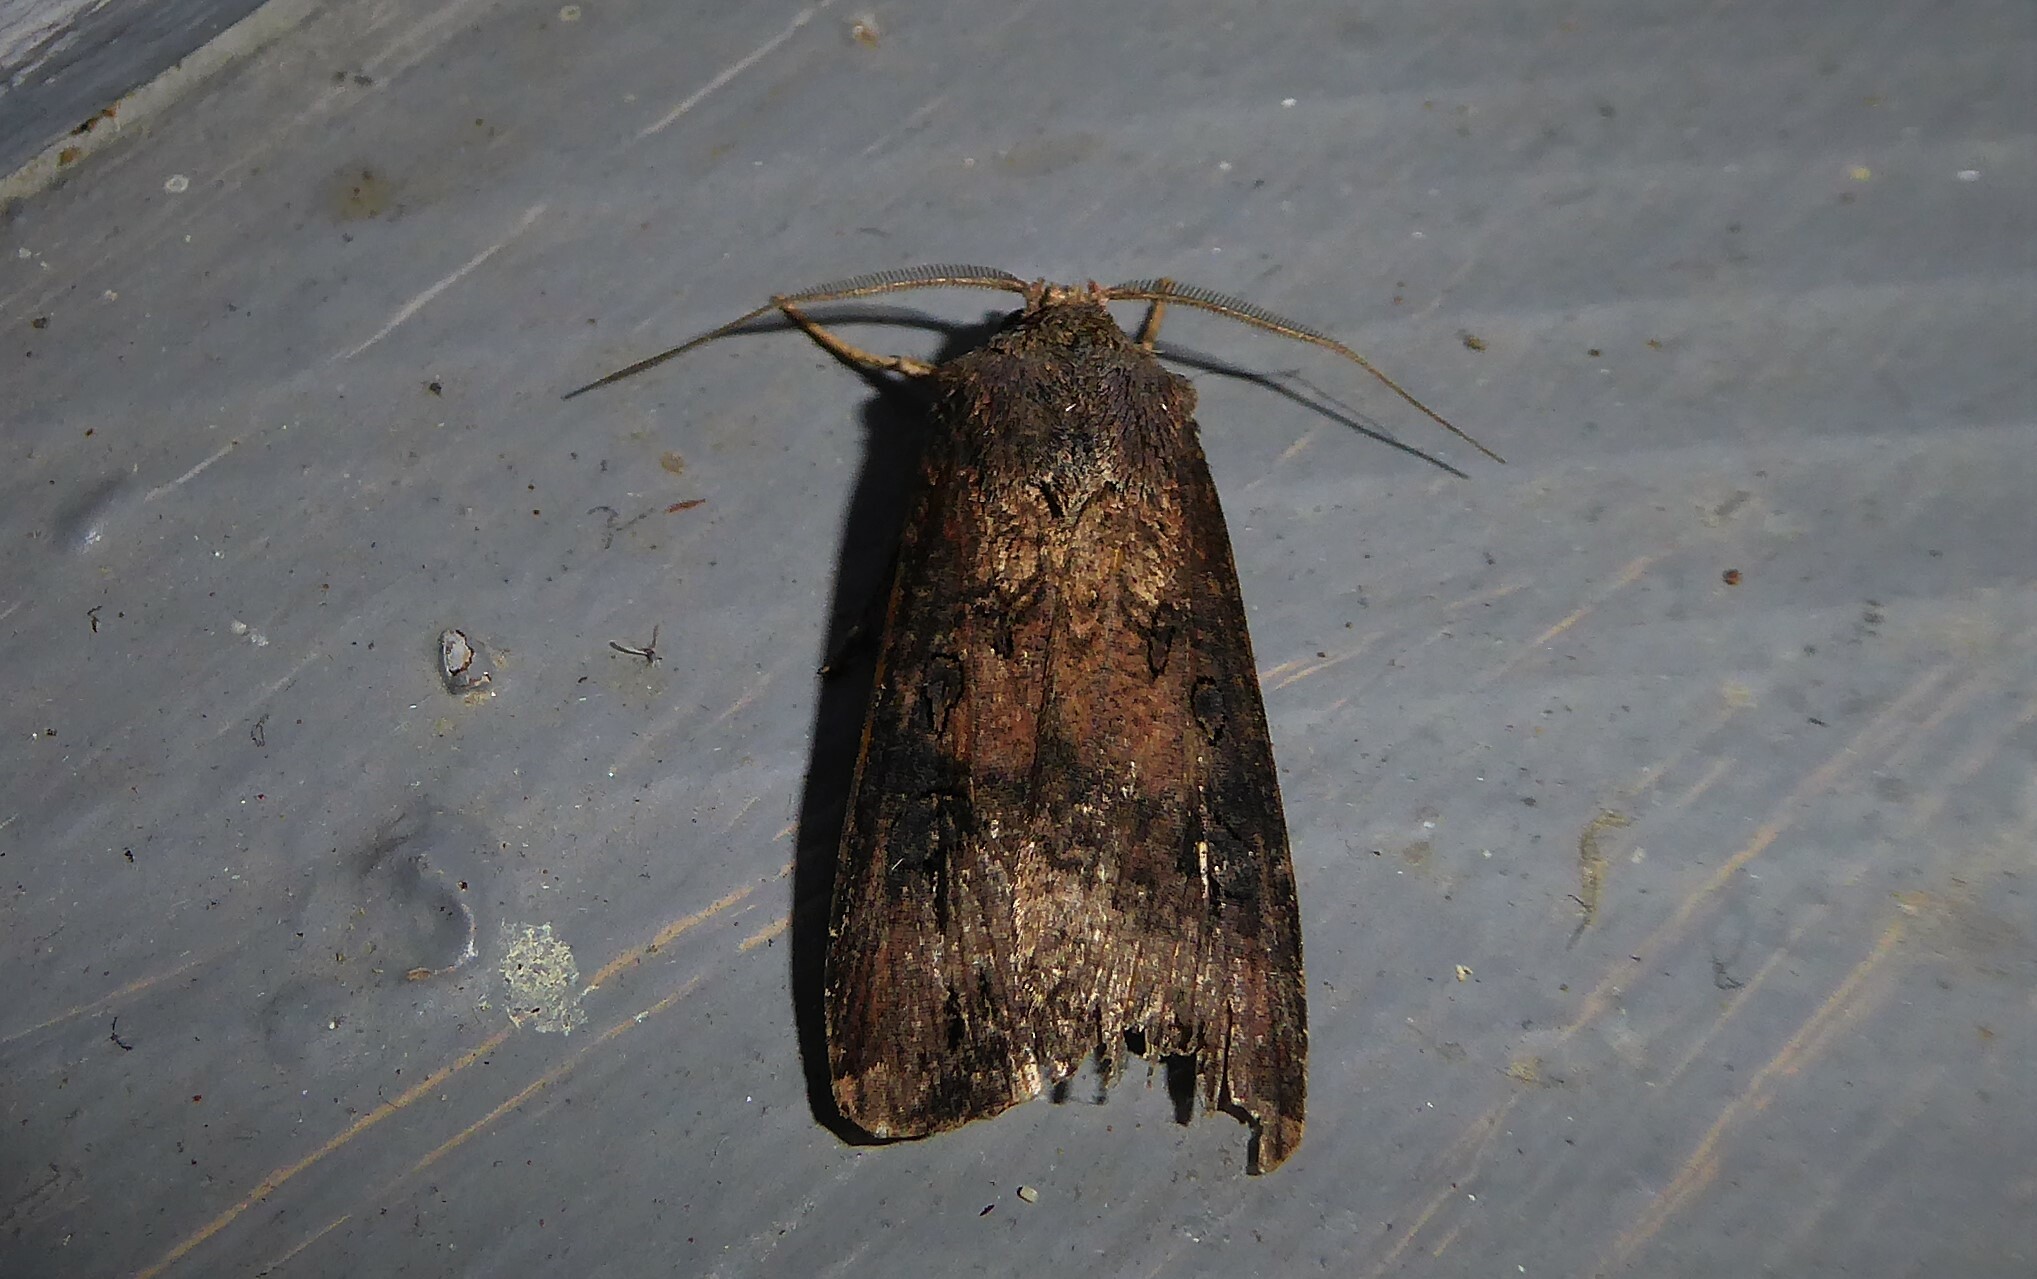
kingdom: Animalia
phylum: Arthropoda
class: Insecta
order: Lepidoptera
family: Noctuidae
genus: Agrotis
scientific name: Agrotis ipsilon
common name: Dark sword-grass
